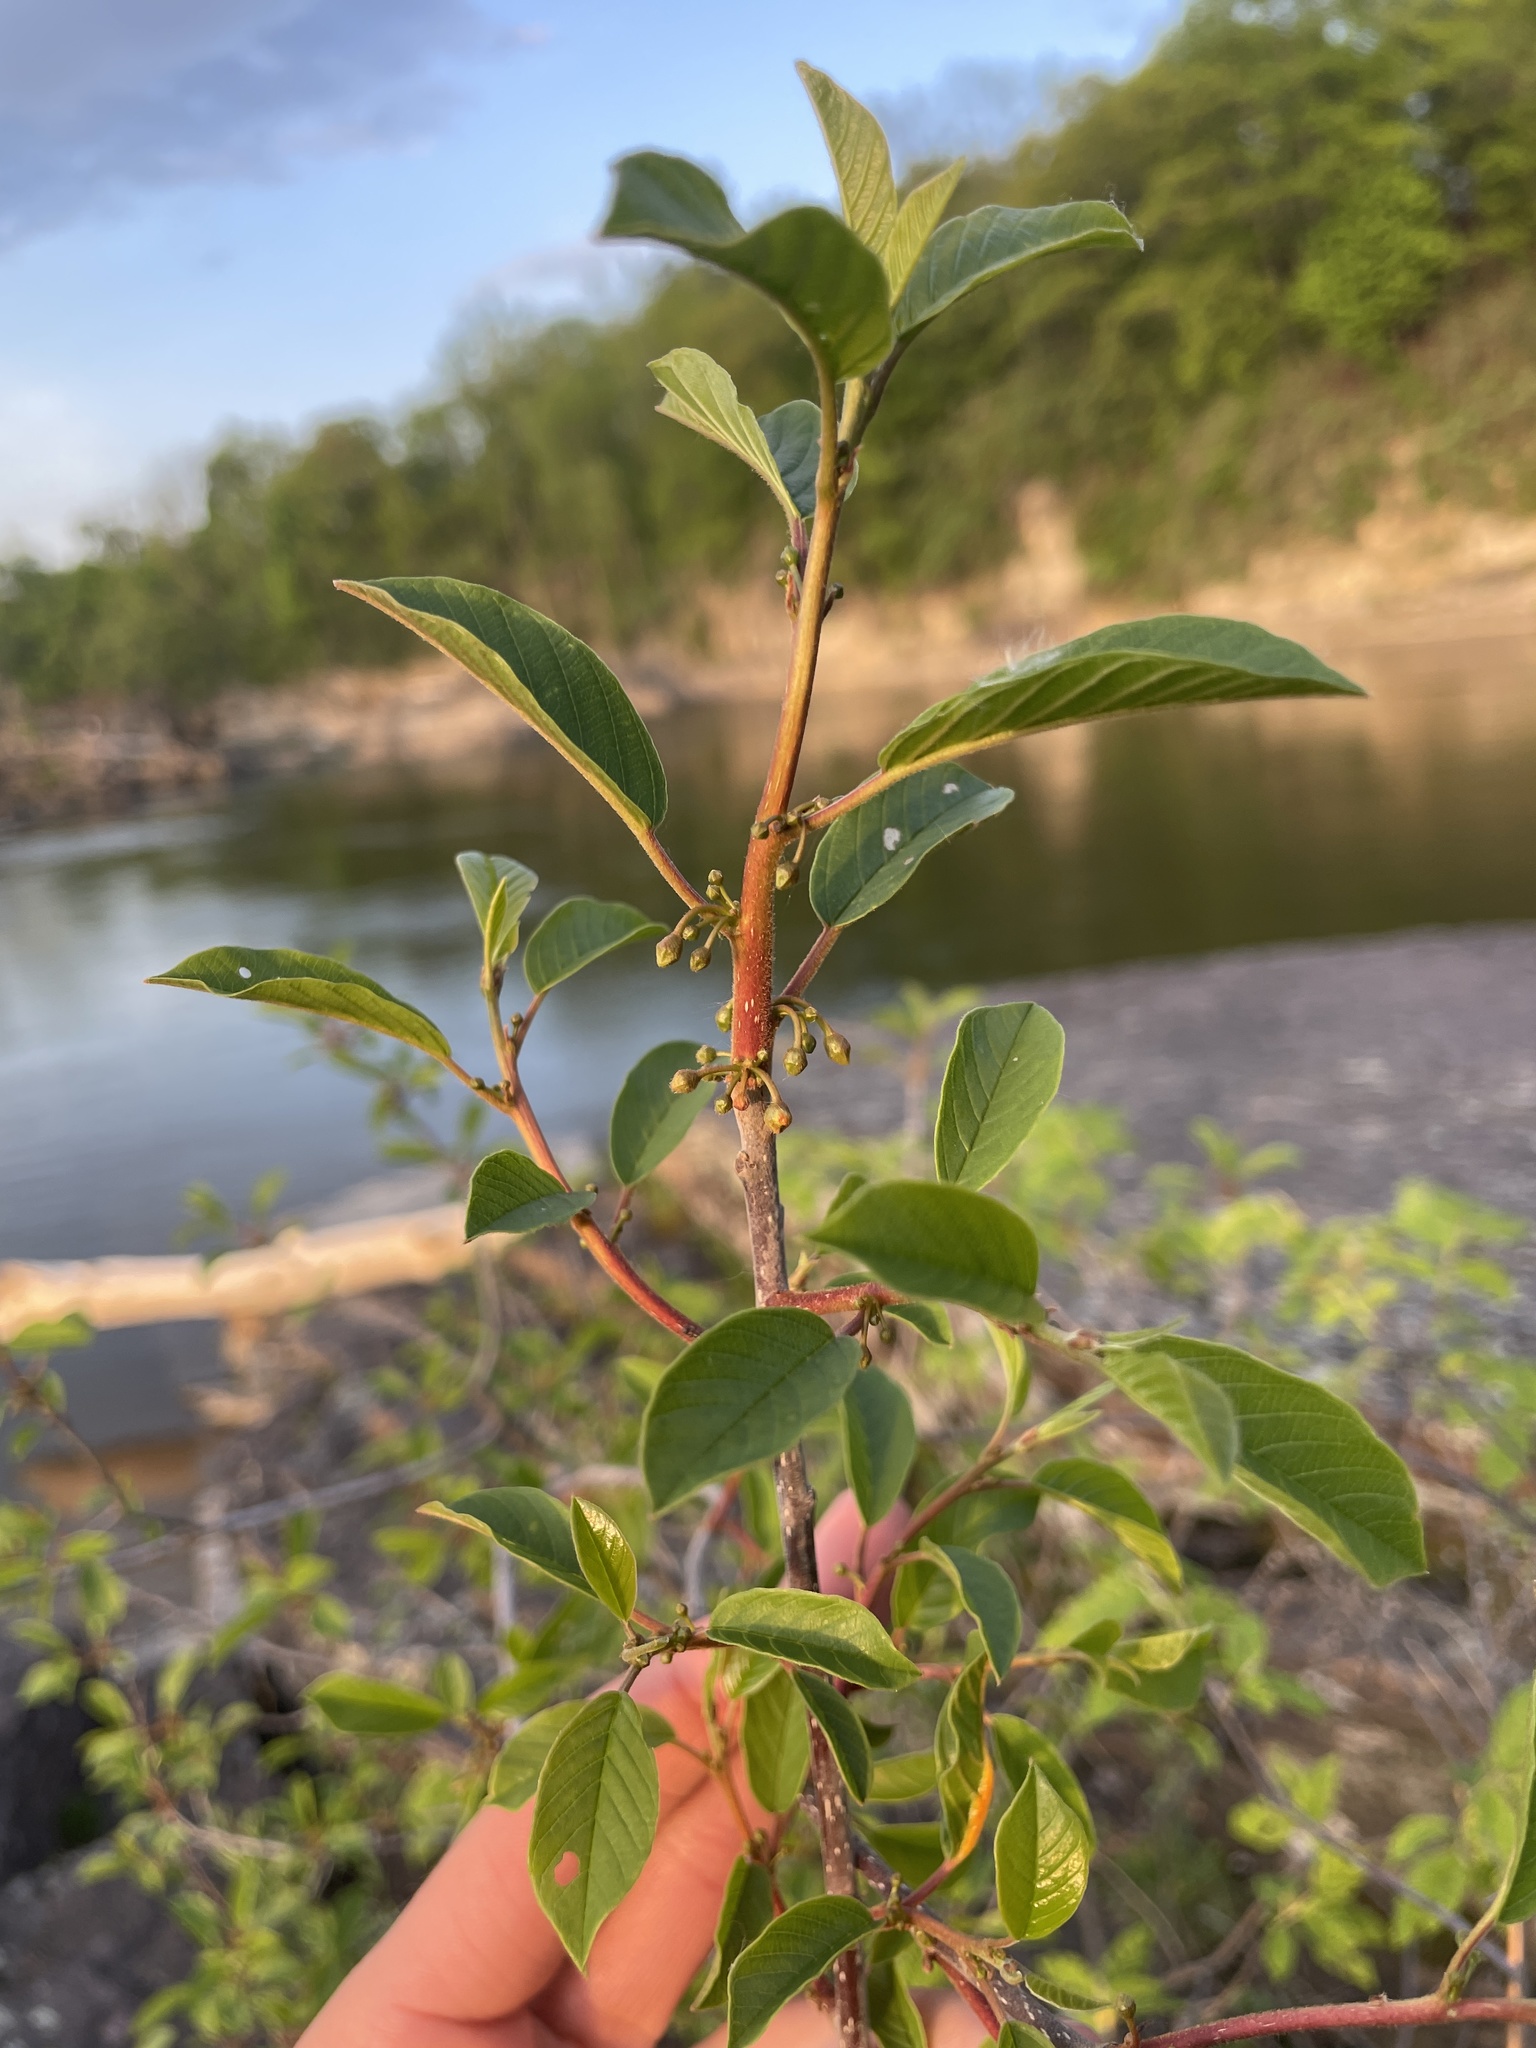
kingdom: Plantae
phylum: Tracheophyta
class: Magnoliopsida
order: Rosales
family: Rhamnaceae
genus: Frangula
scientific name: Frangula alnus
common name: Alder buckthorn
